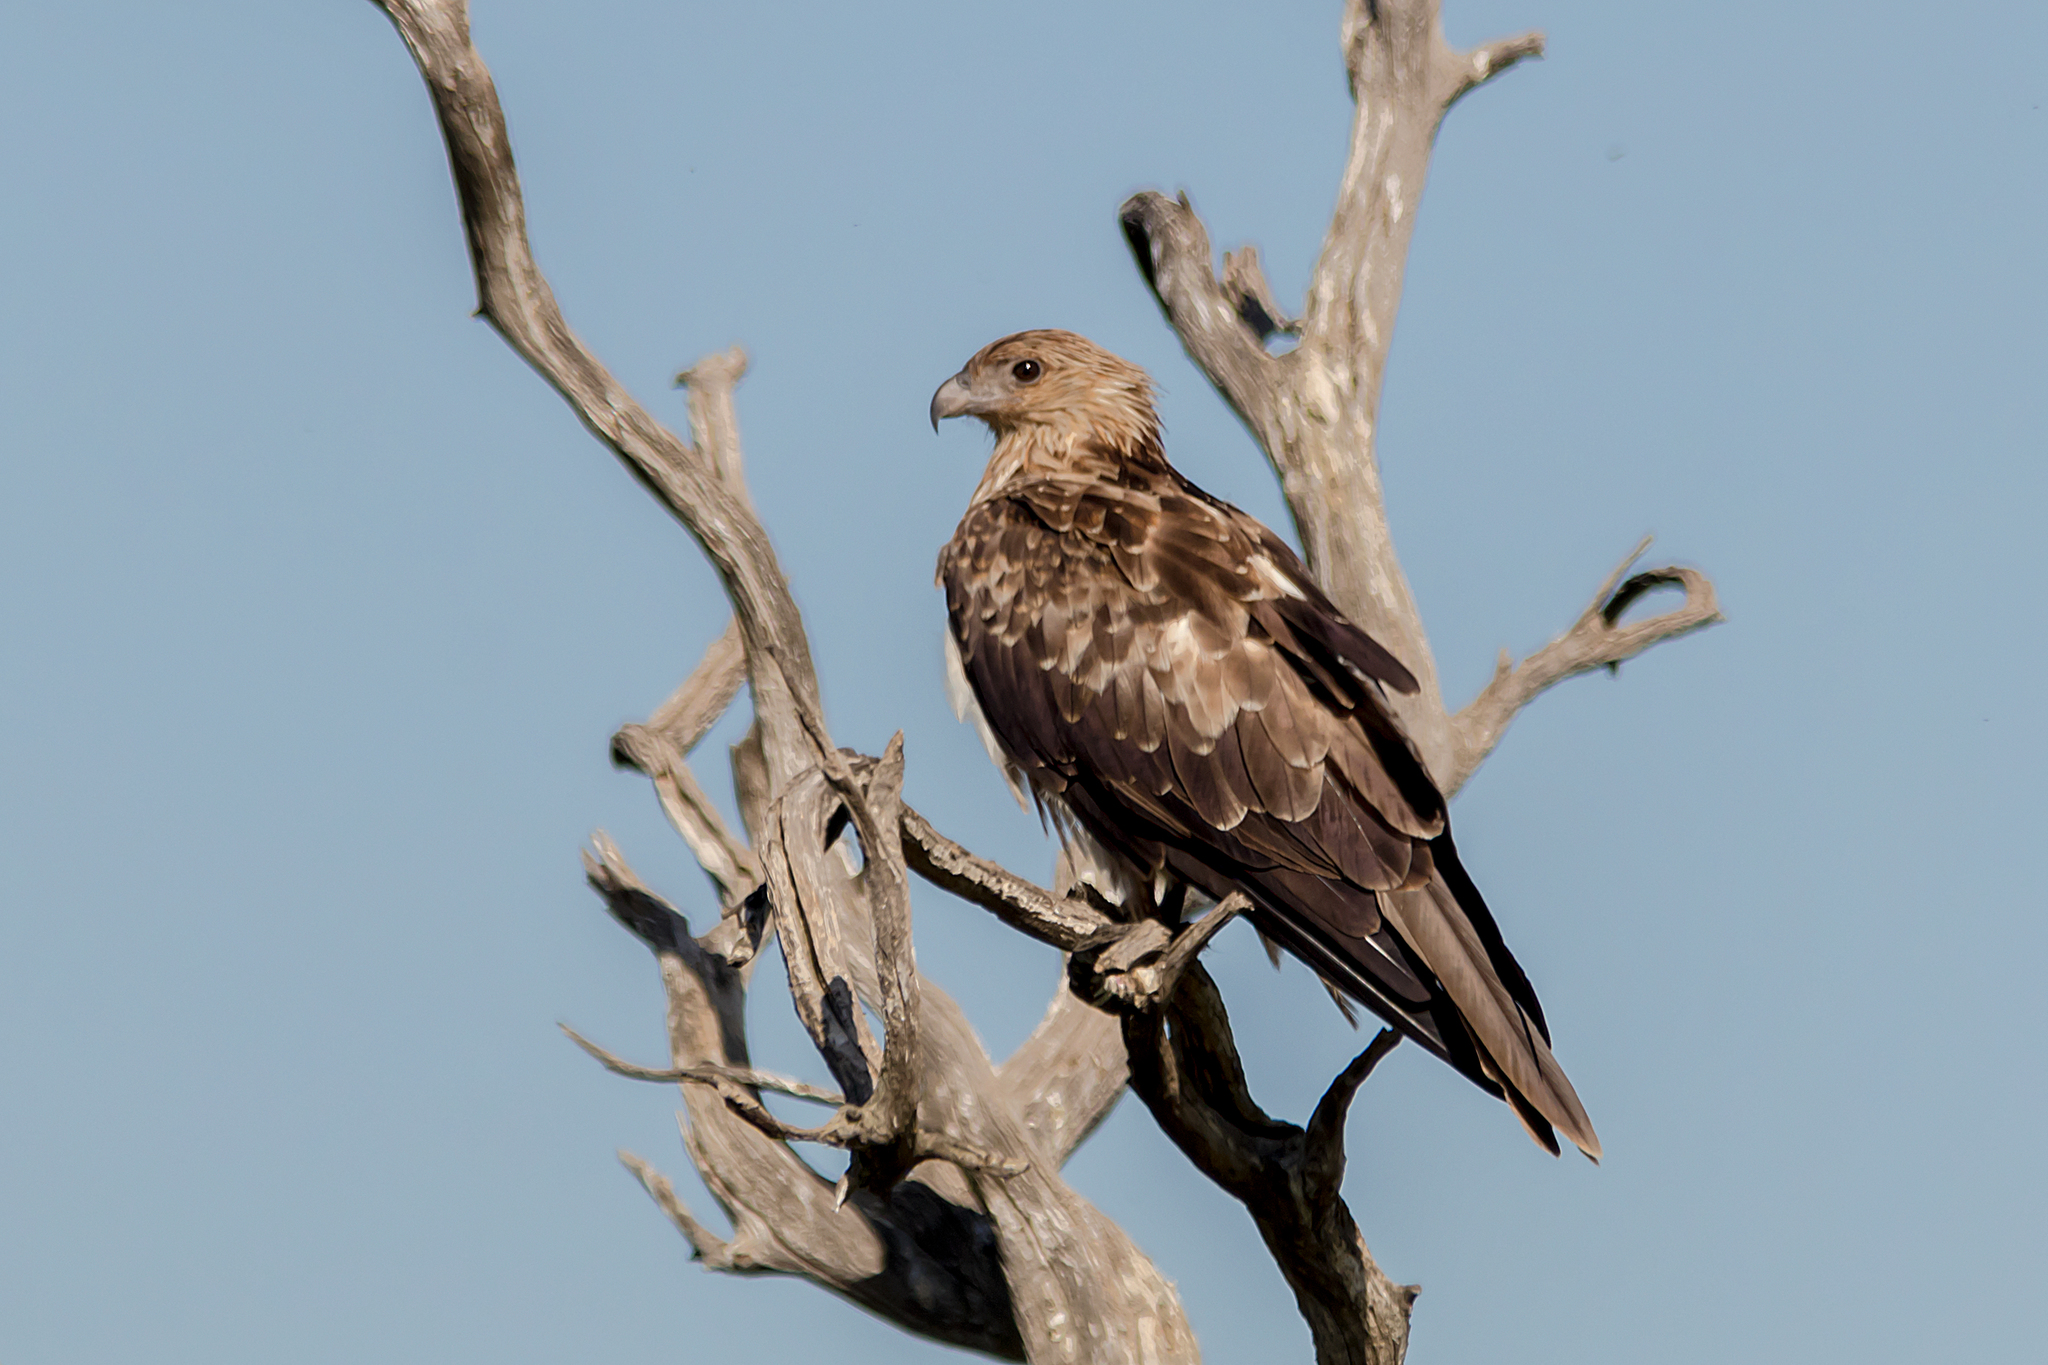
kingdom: Animalia
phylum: Chordata
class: Aves
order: Accipitriformes
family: Accipitridae
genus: Haliastur
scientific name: Haliastur sphenurus
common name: Whistling kite
